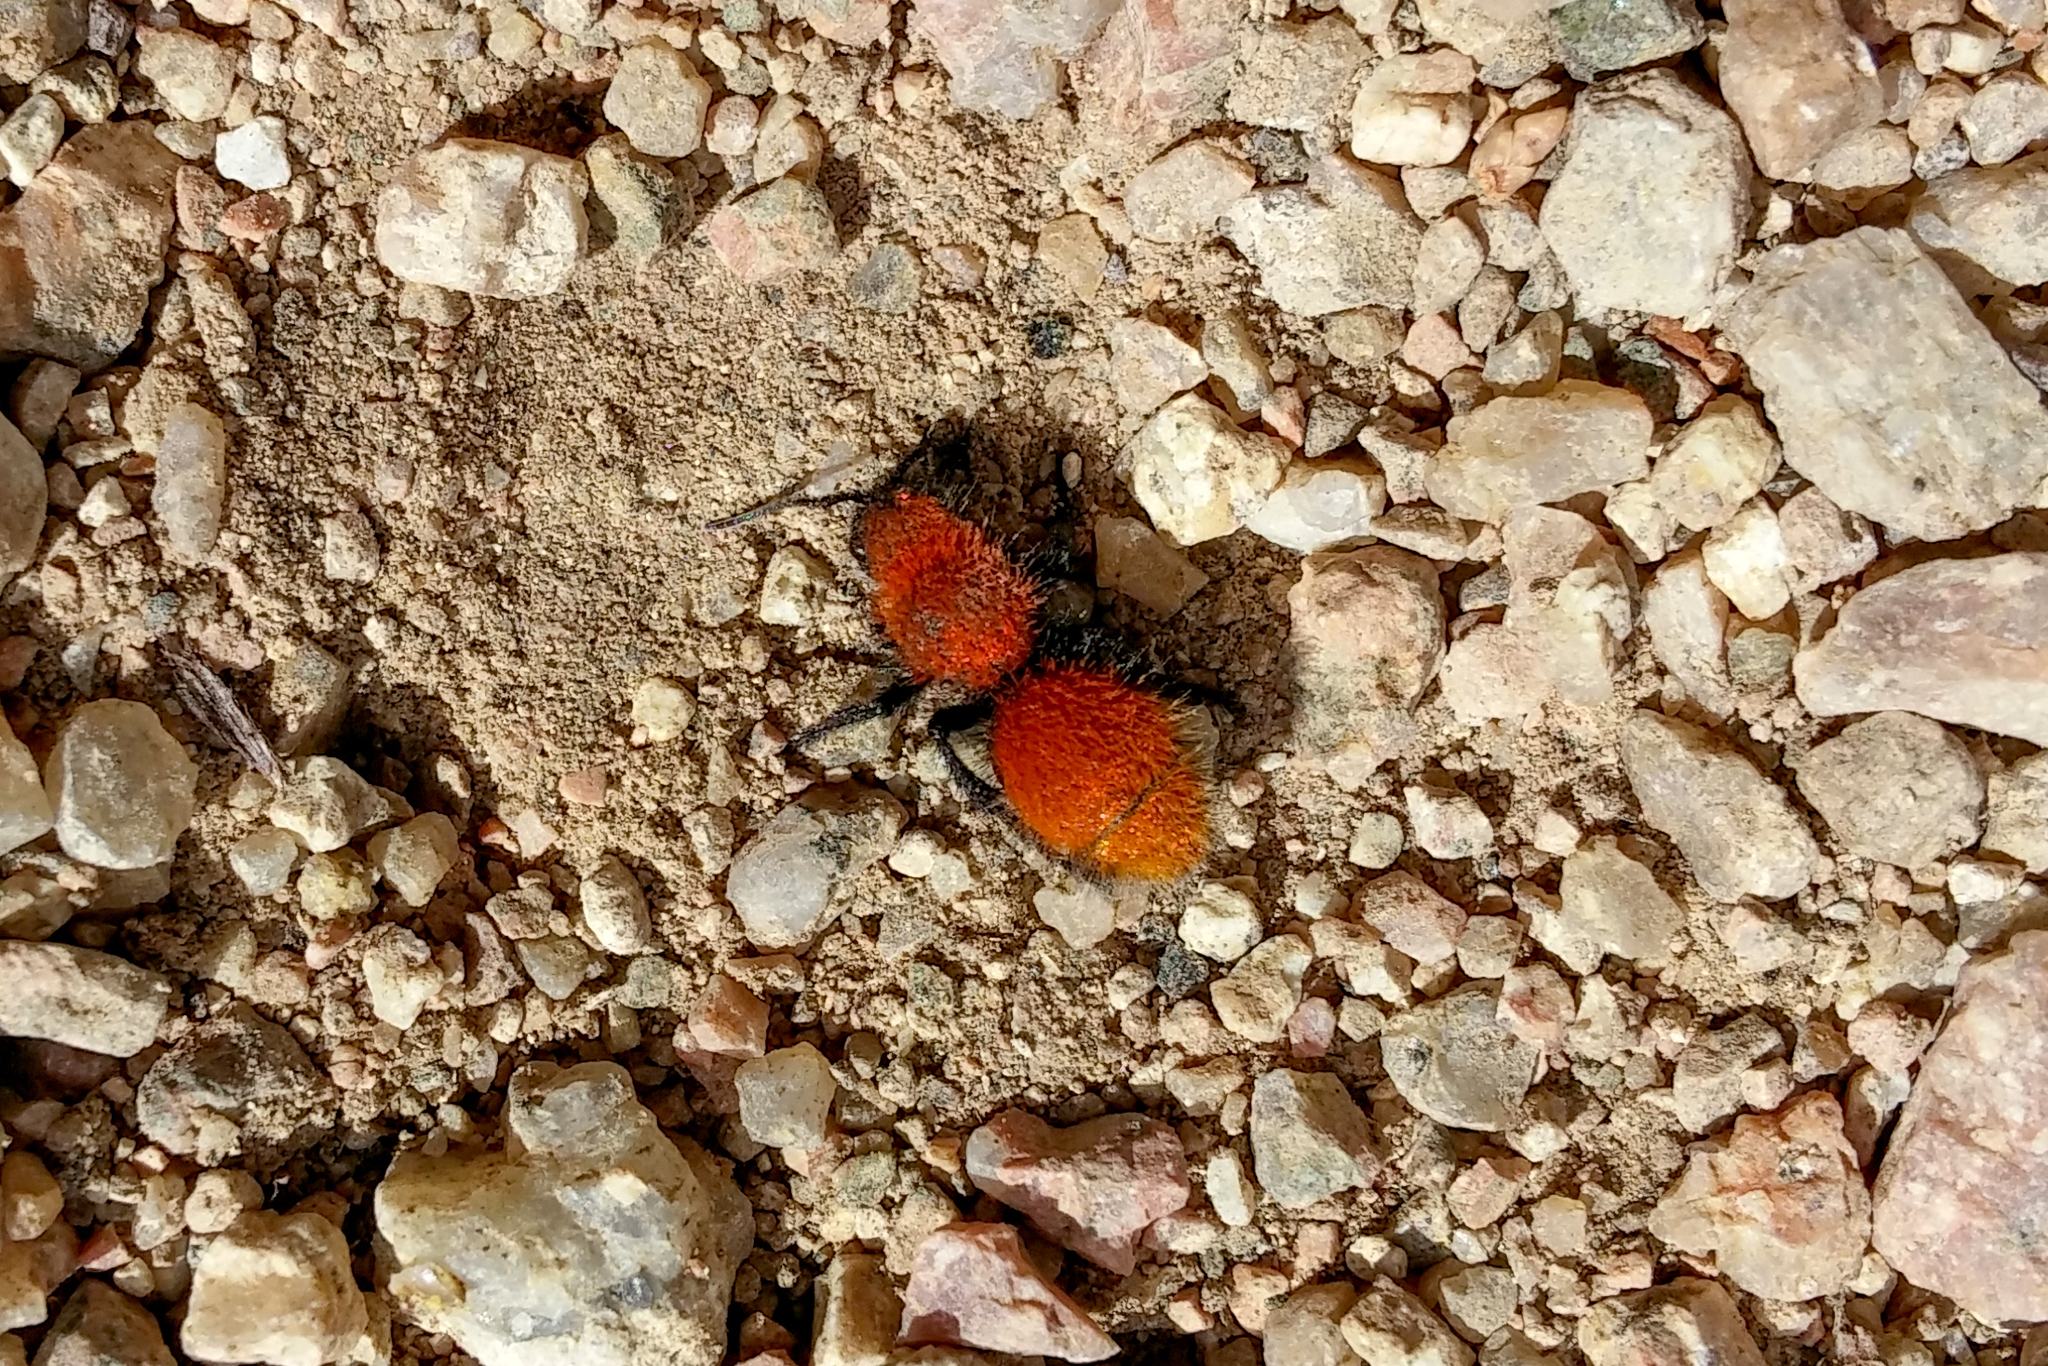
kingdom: Animalia
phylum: Arthropoda
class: Insecta
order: Hymenoptera
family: Mutillidae
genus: Dasymutilla
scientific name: Dasymutilla vestita
